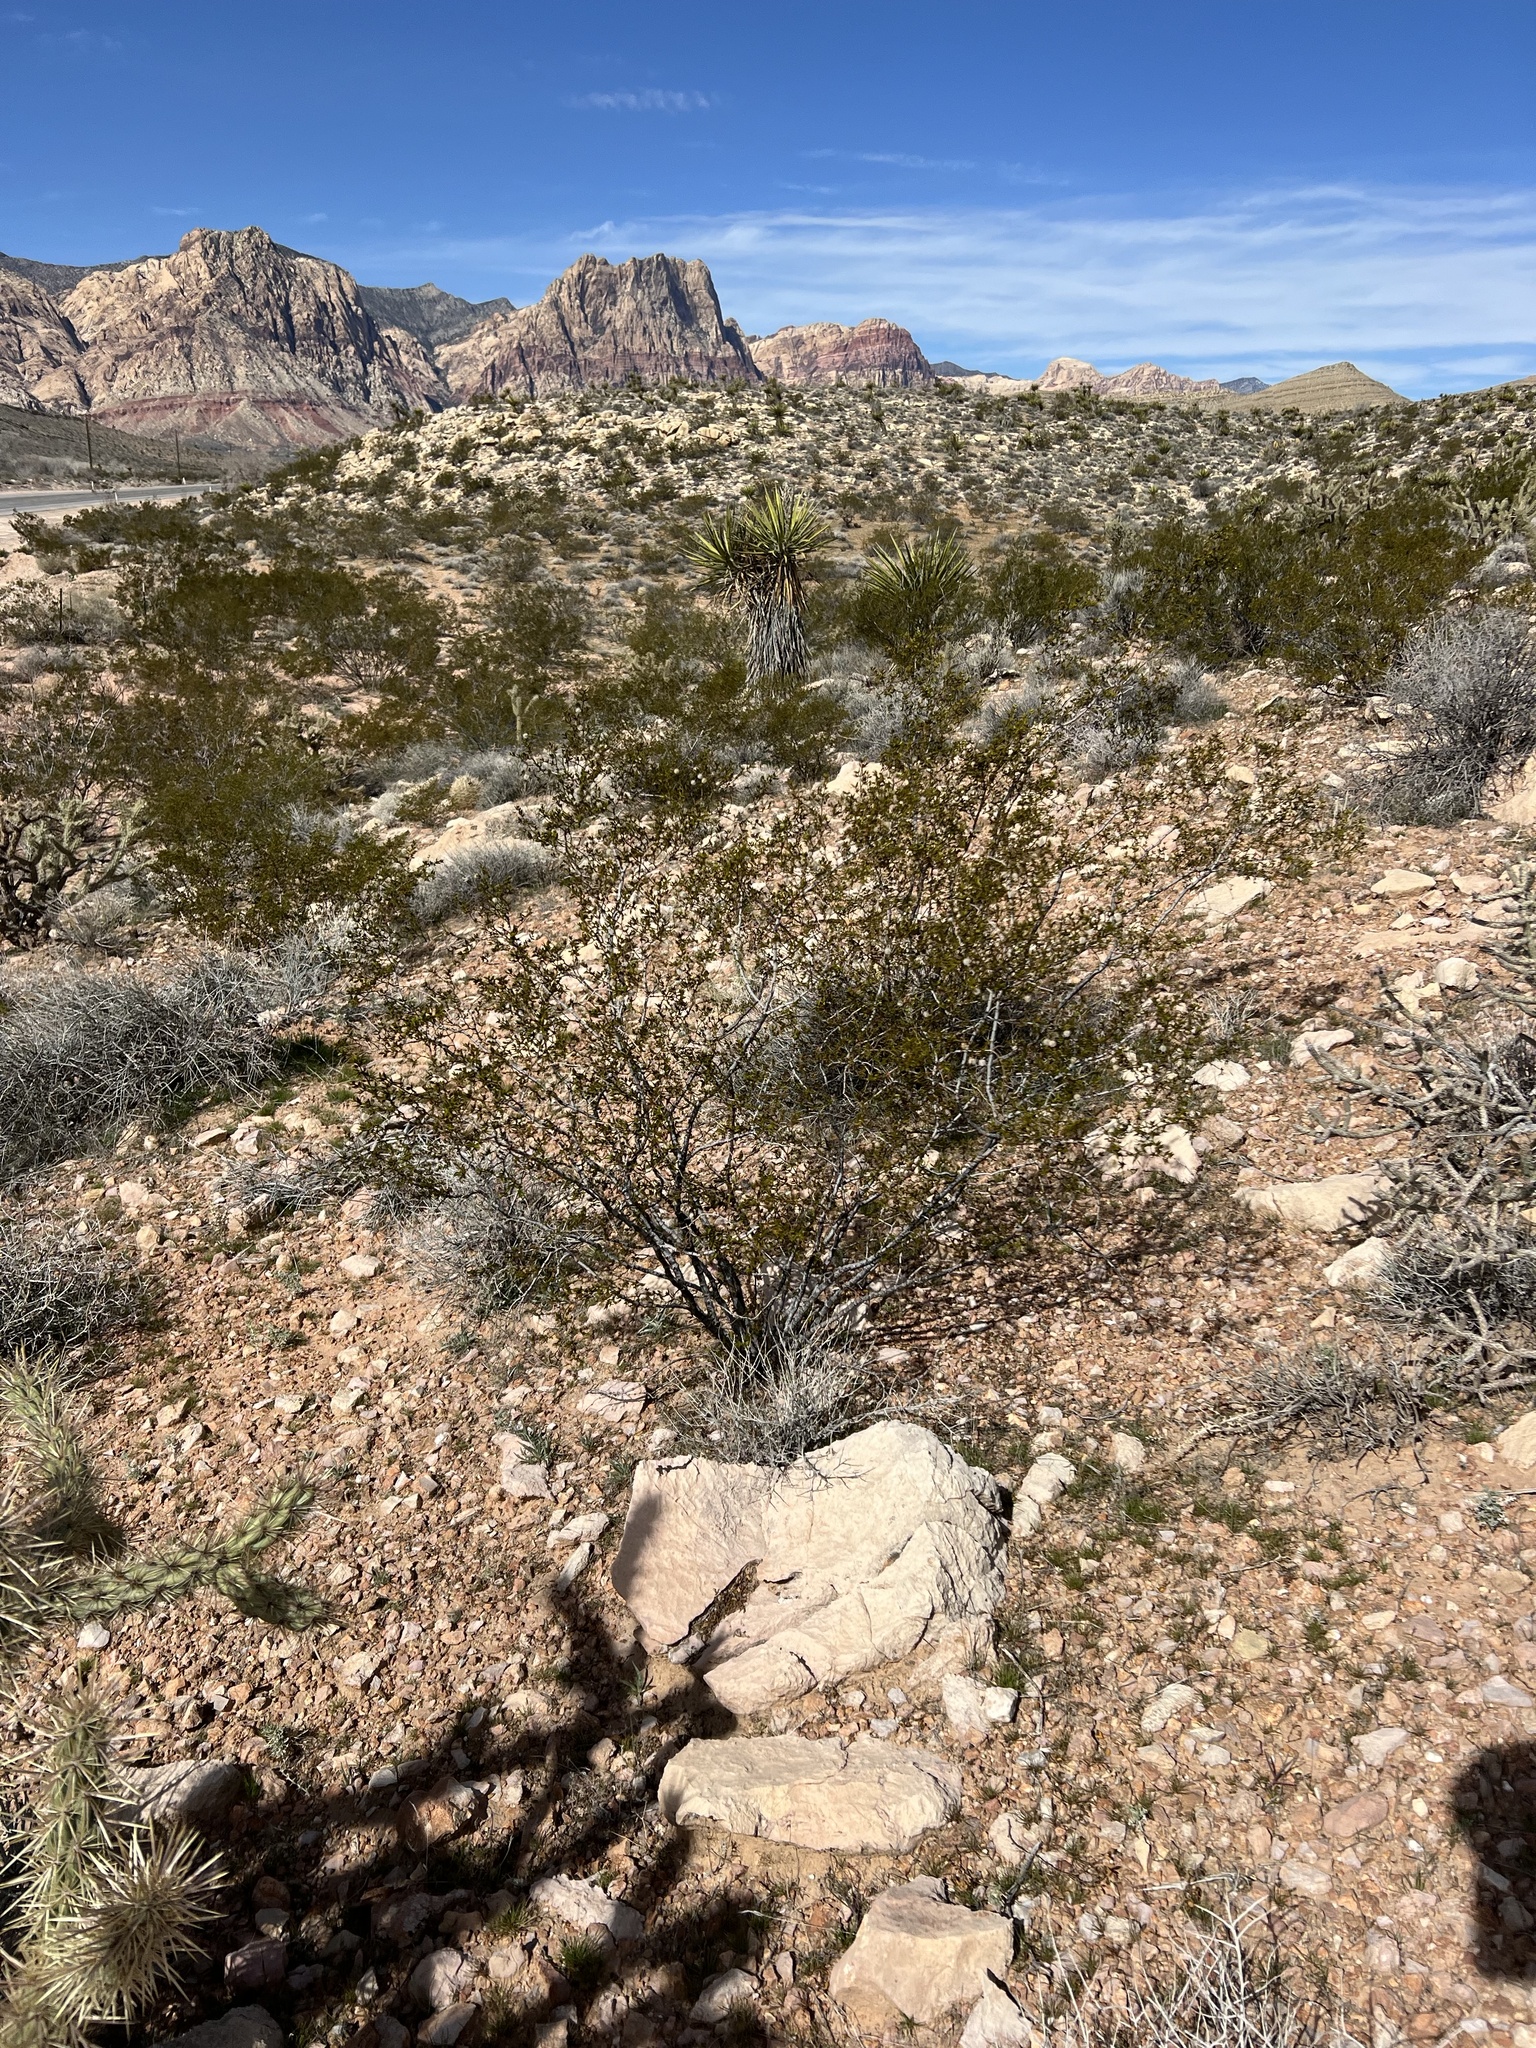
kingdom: Plantae
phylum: Tracheophyta
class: Magnoliopsida
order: Zygophyllales
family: Zygophyllaceae
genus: Larrea
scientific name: Larrea tridentata
